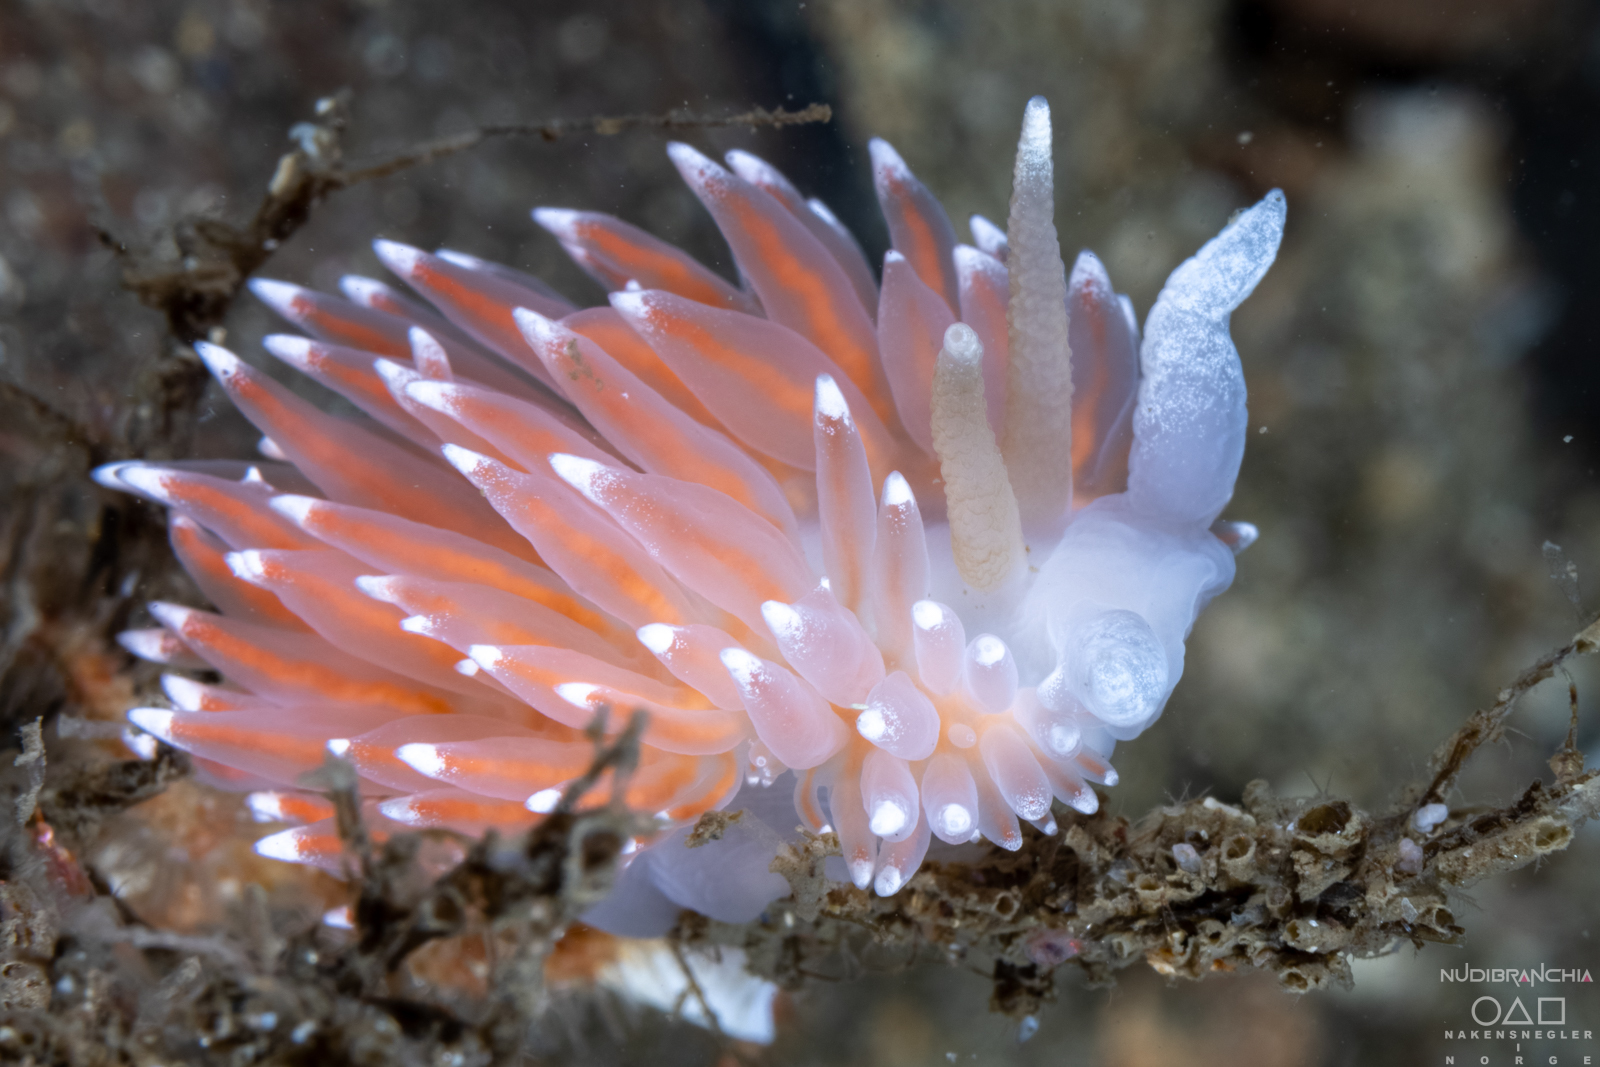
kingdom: Animalia
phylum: Mollusca
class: Gastropoda
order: Nudibranchia
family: Coryphellidae
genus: Coryphella
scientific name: Coryphella nobilis
